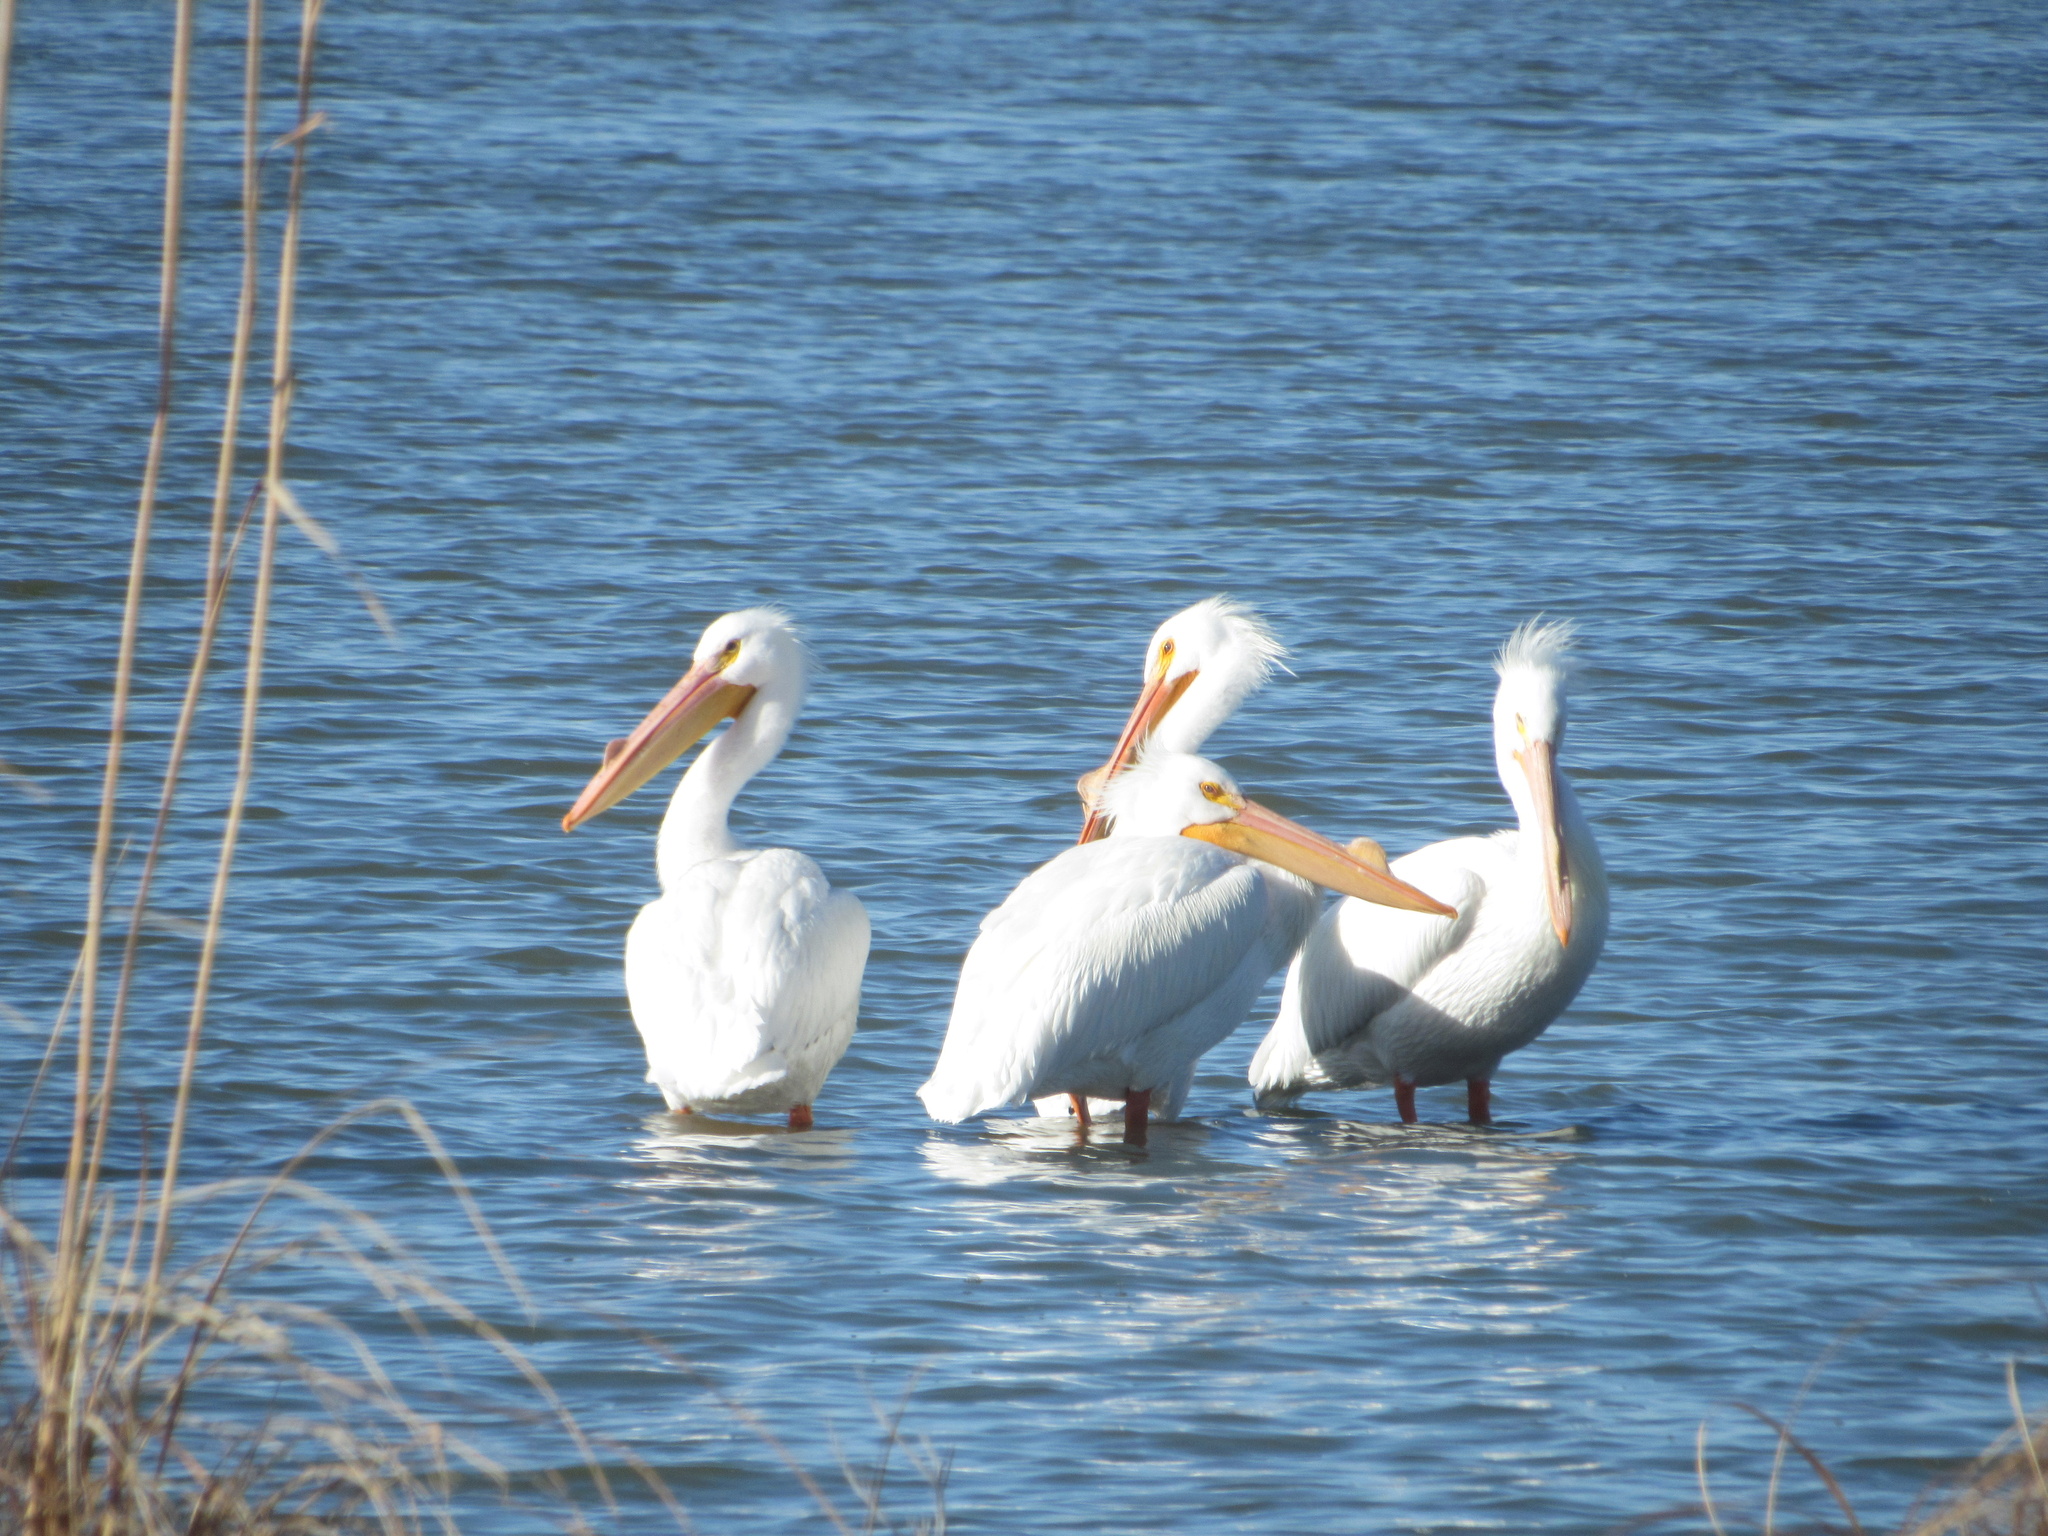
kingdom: Animalia
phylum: Chordata
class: Aves
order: Pelecaniformes
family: Pelecanidae
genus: Pelecanus
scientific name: Pelecanus erythrorhynchos
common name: American white pelican
